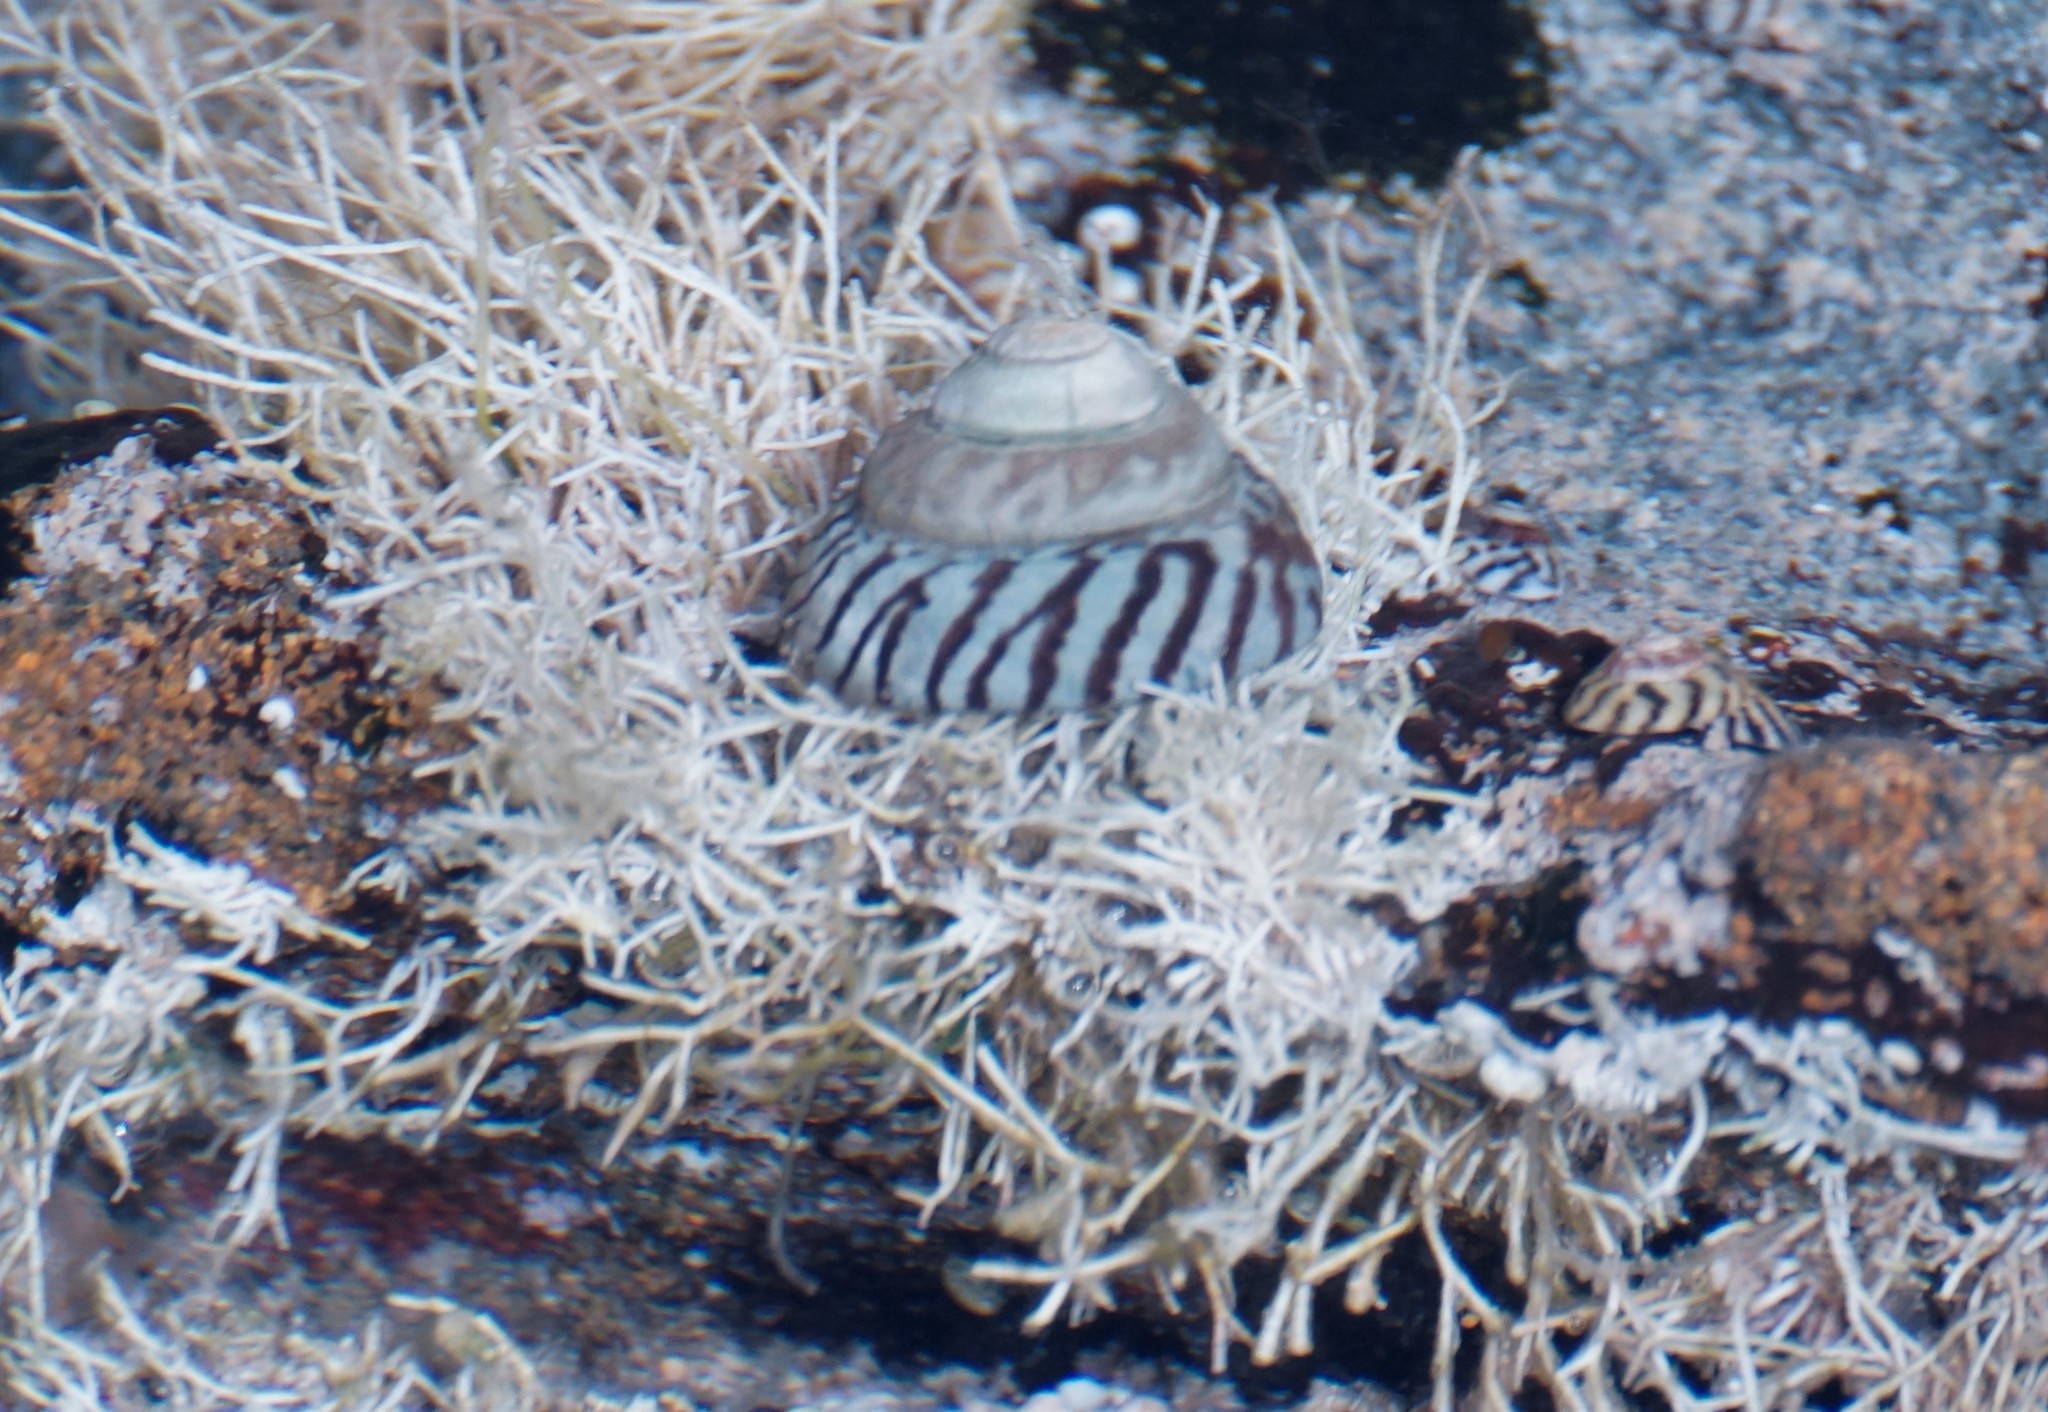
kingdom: Animalia
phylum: Mollusca
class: Gastropoda
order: Littorinimorpha
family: Littorinidae
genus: Bembicium
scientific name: Bembicium nanum
